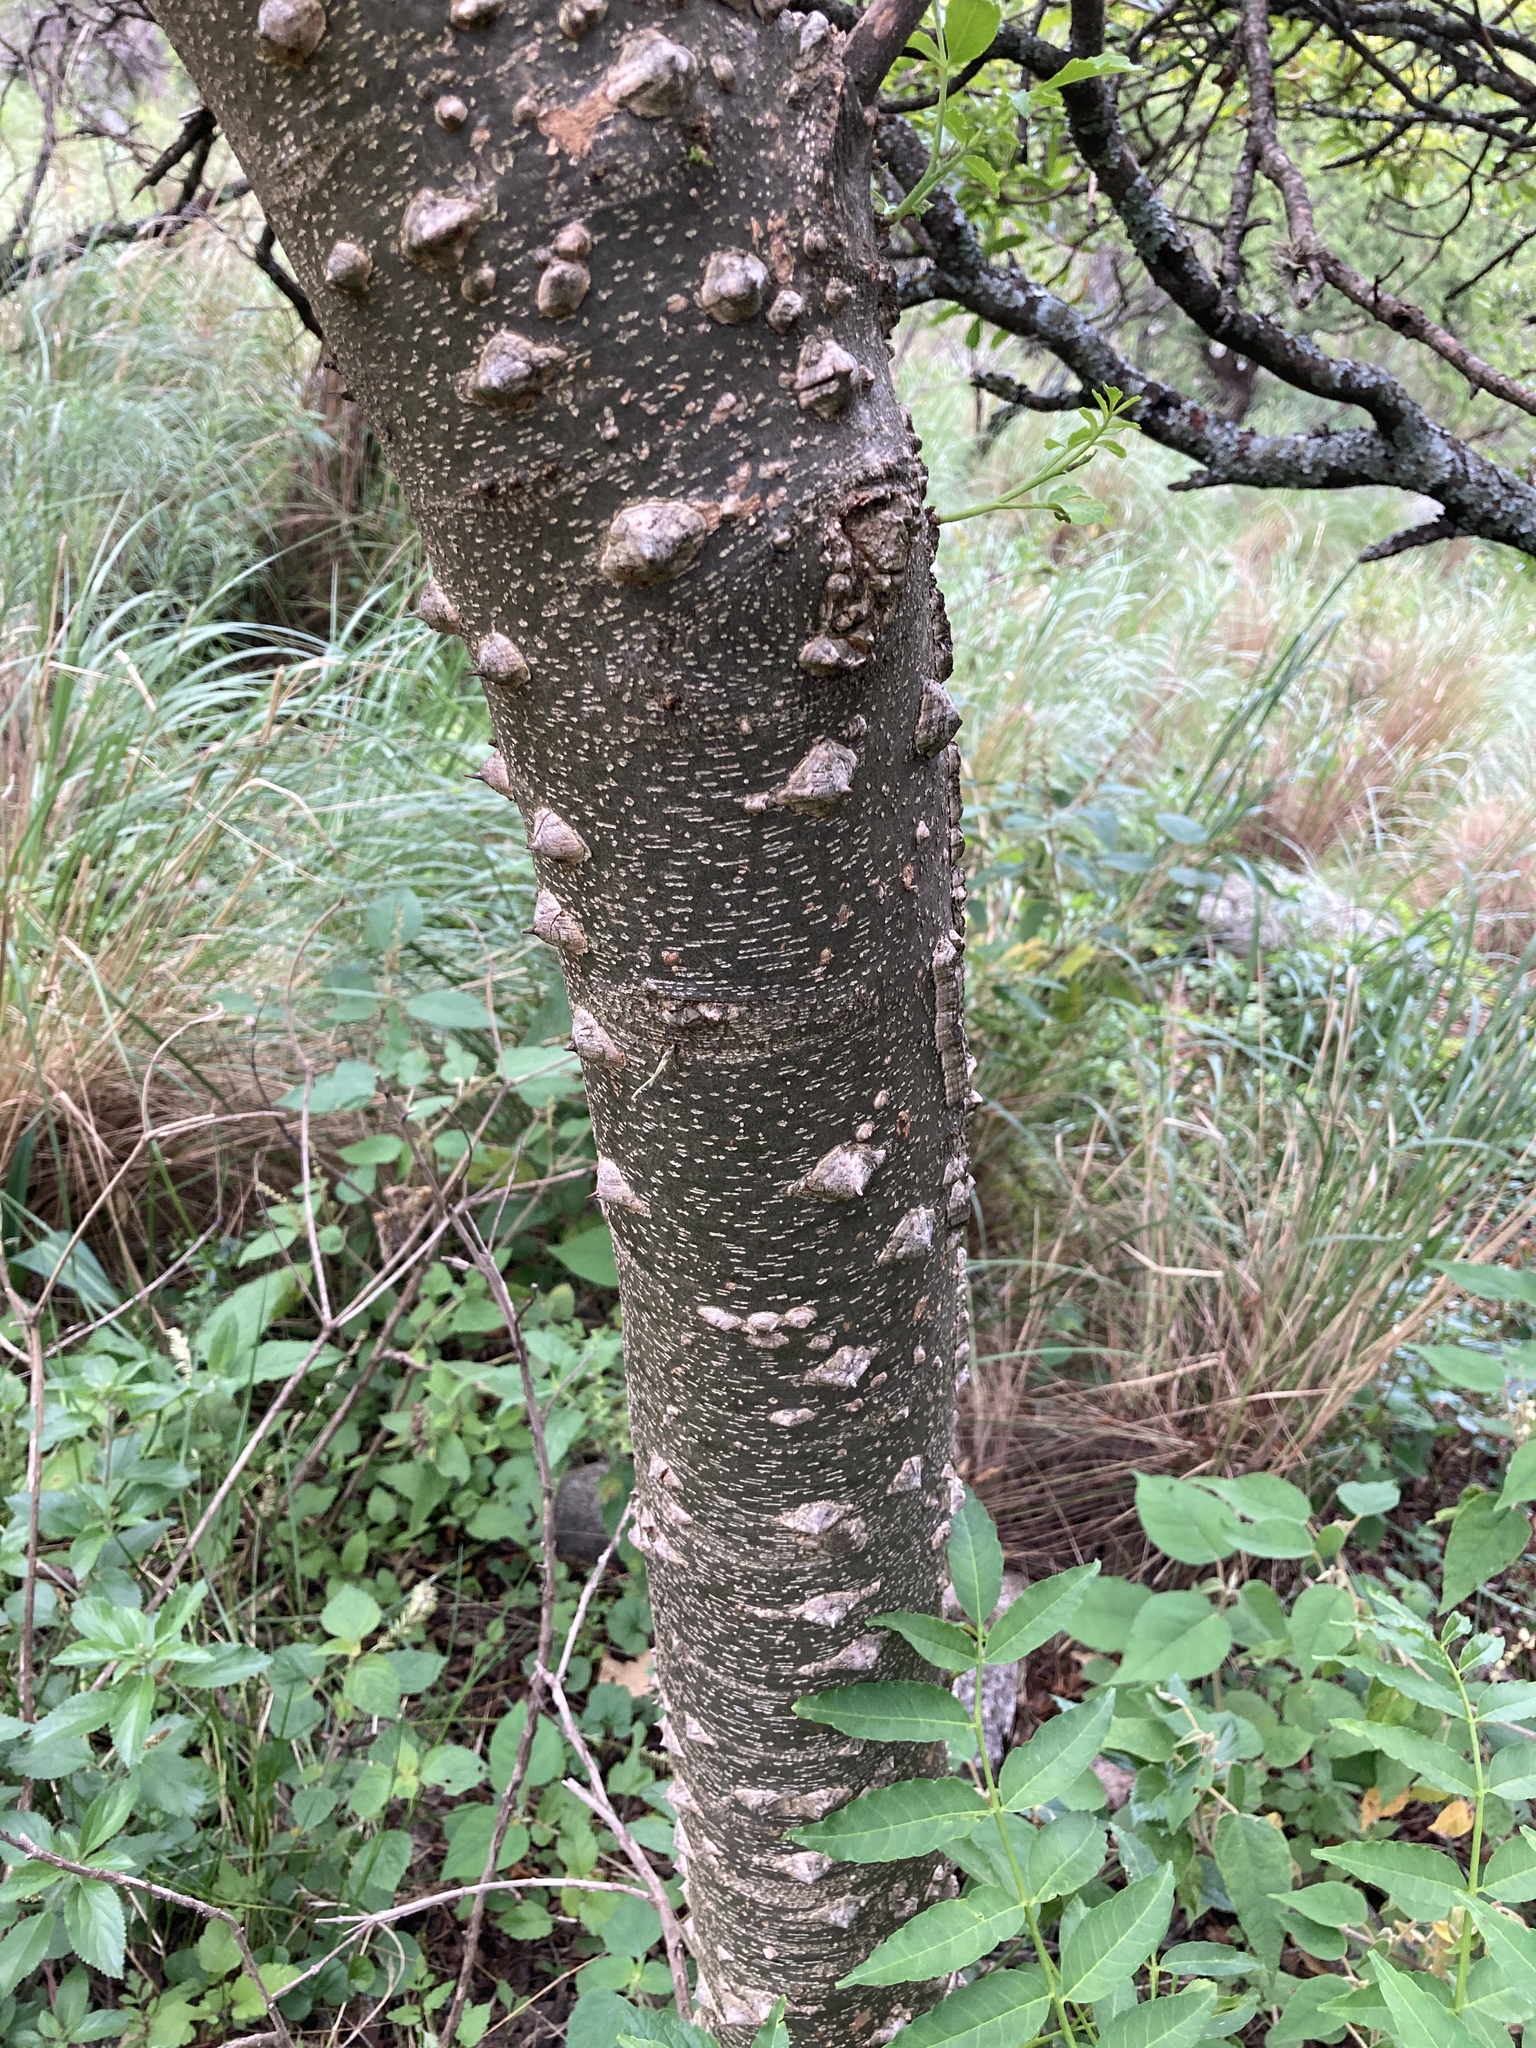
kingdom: Plantae
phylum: Tracheophyta
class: Magnoliopsida
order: Sapindales
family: Rutaceae
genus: Zanthoxylum
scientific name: Zanthoxylum coco
